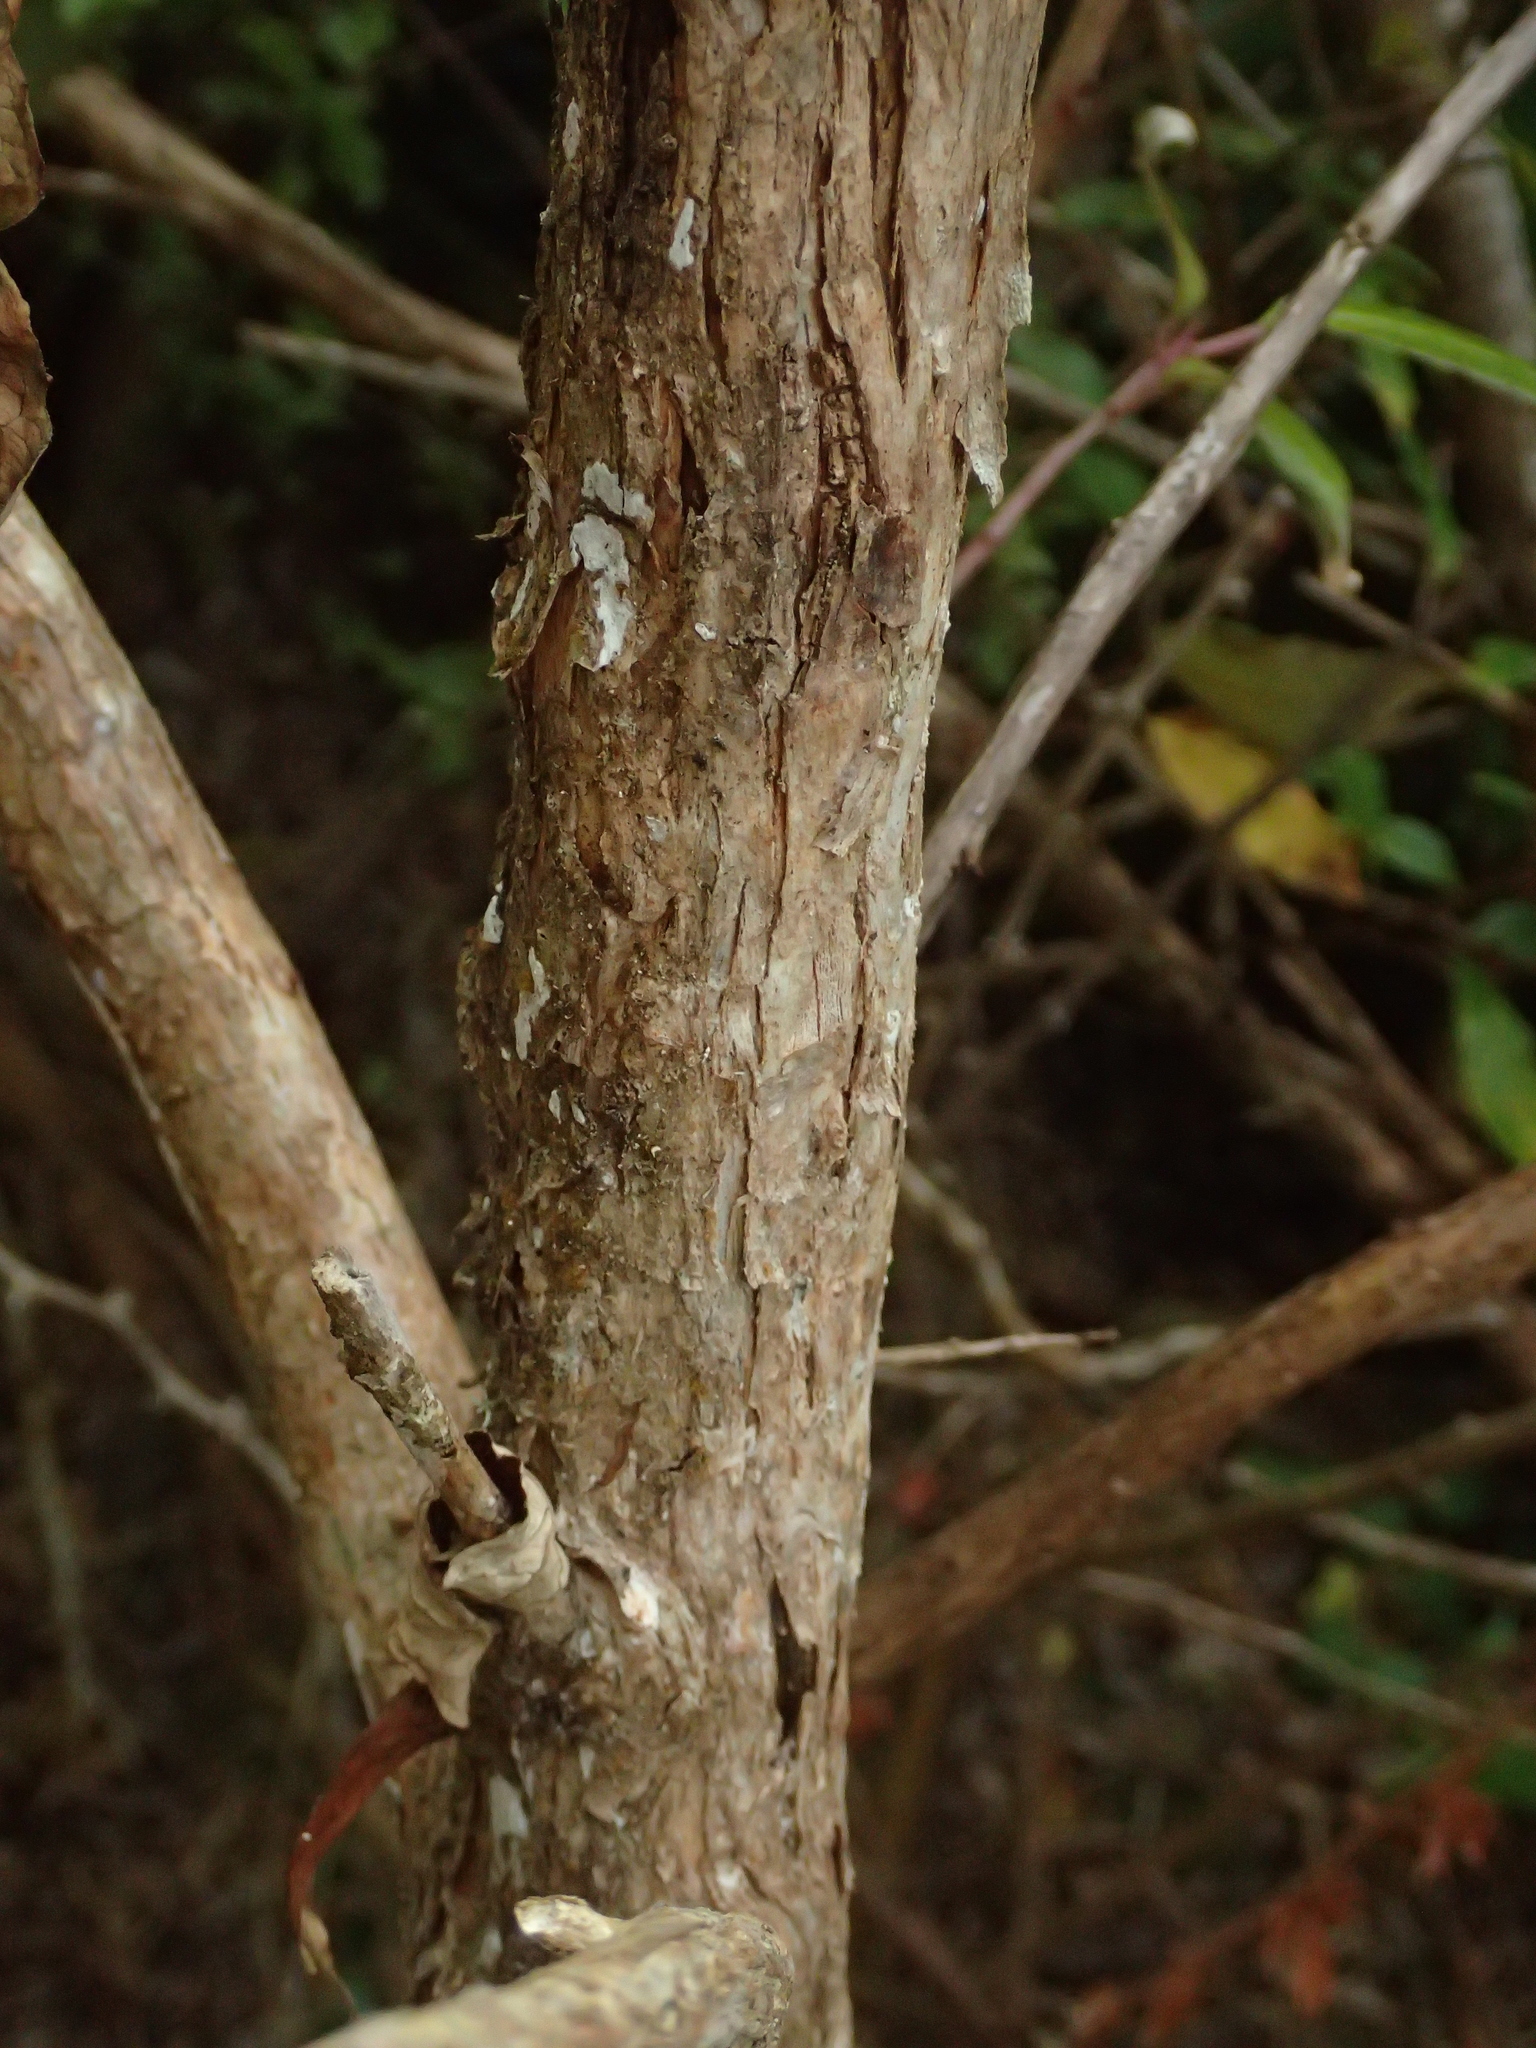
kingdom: Plantae
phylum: Tracheophyta
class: Magnoliopsida
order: Myrtales
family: Onagraceae
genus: Fuchsia
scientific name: Fuchsia excorticata
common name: Tree fuchsia
